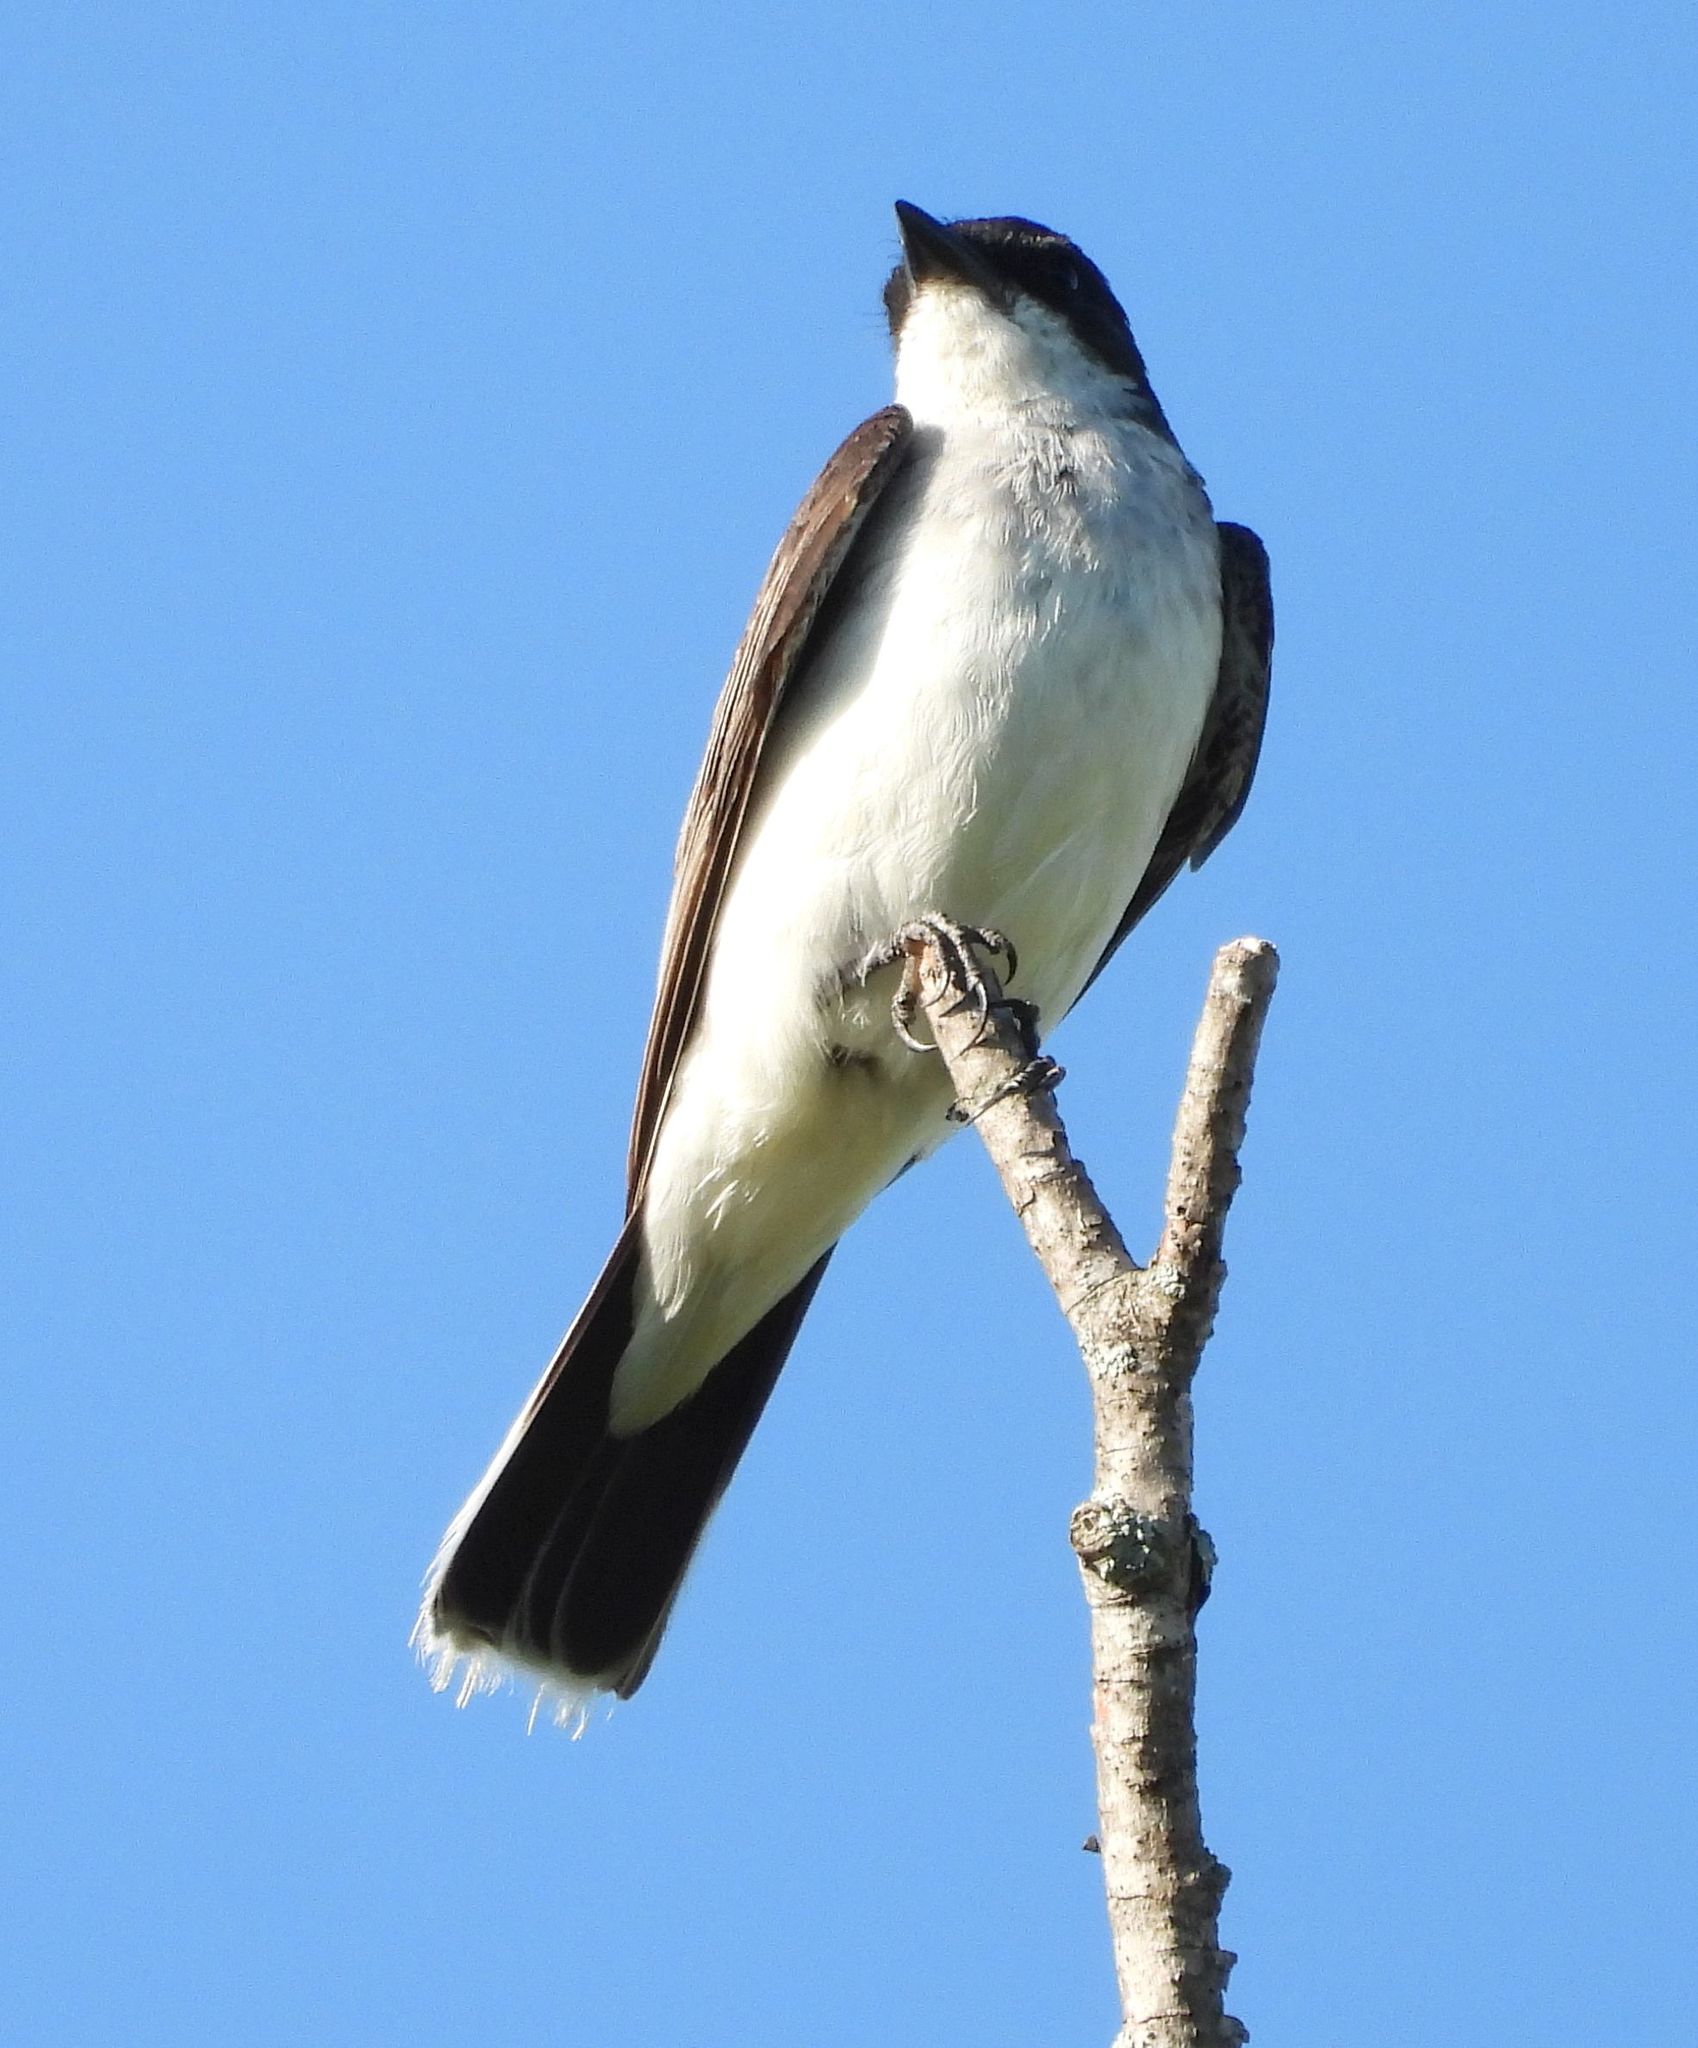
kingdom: Animalia
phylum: Chordata
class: Aves
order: Passeriformes
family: Tyrannidae
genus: Tyrannus
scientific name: Tyrannus tyrannus
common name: Eastern kingbird
